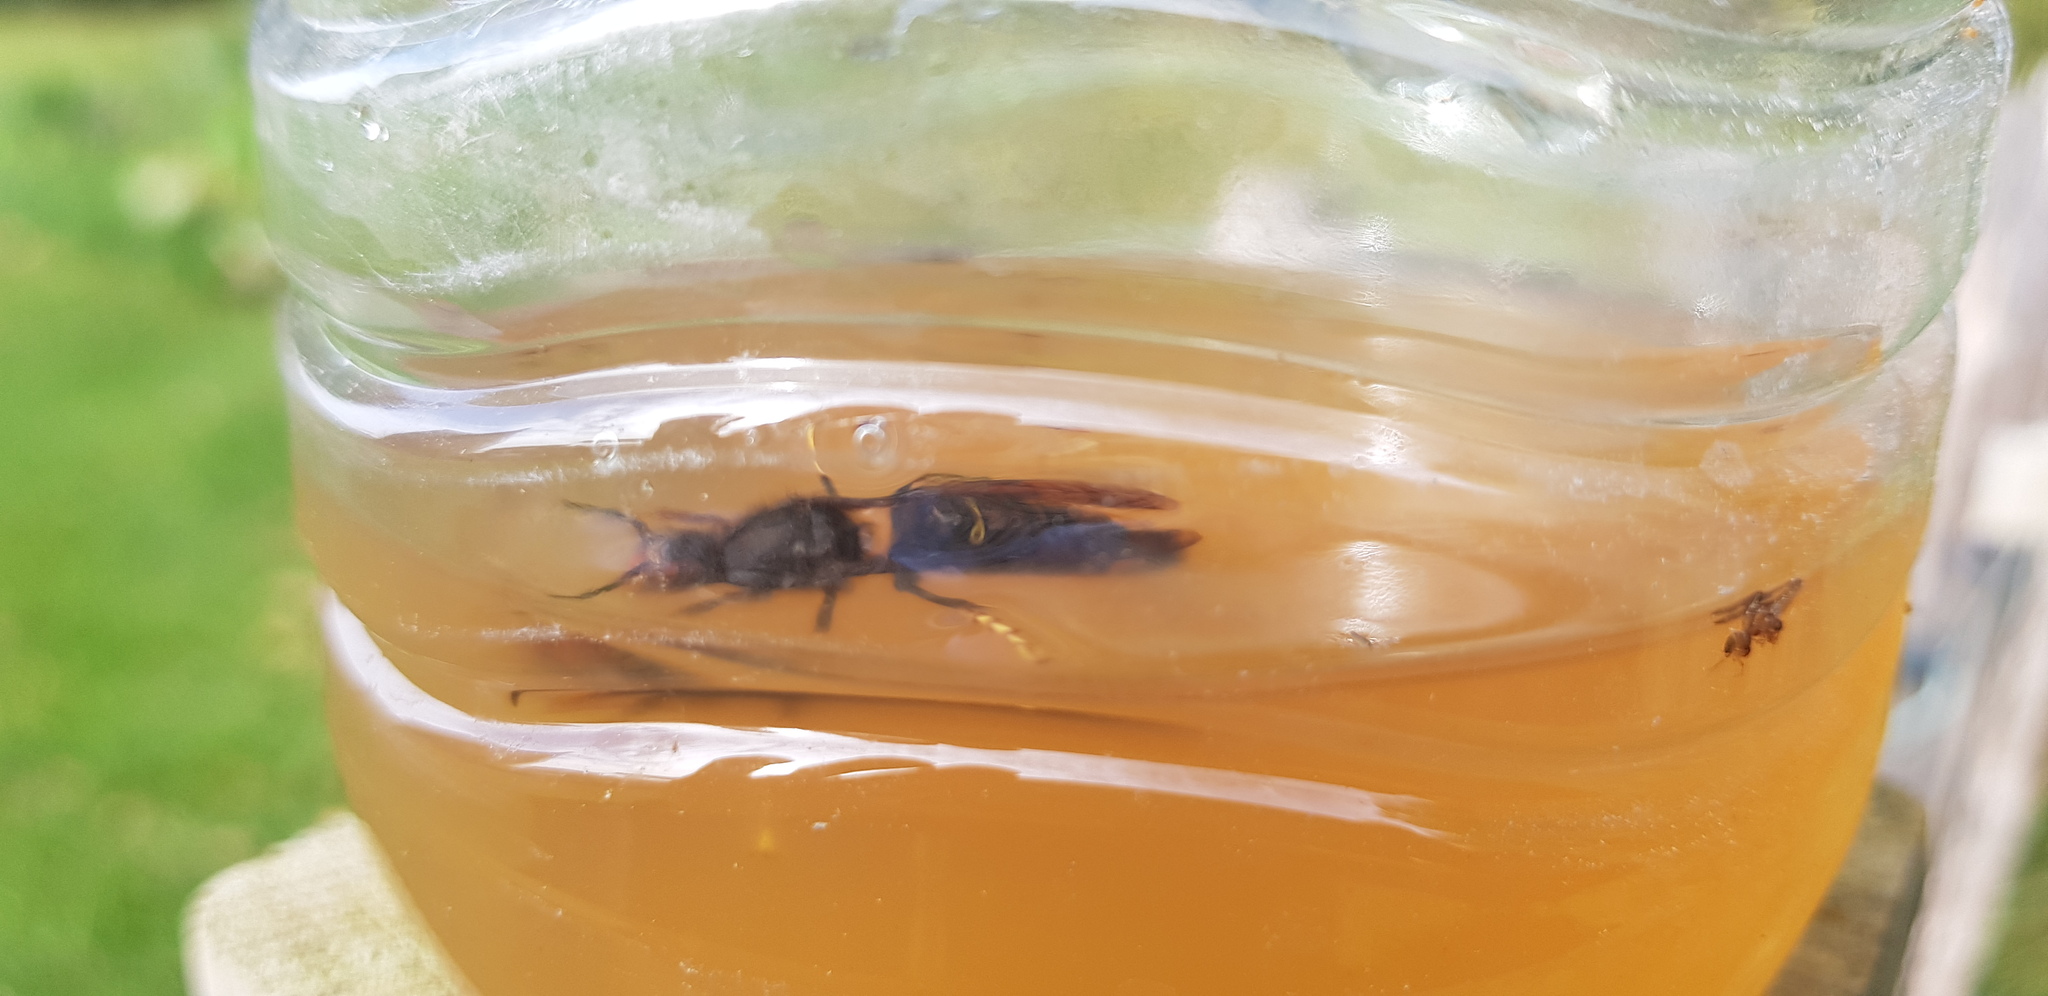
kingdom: Animalia
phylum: Arthropoda
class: Insecta
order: Hymenoptera
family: Vespidae
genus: Vespa
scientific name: Vespa velutina
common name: Asian hornet
